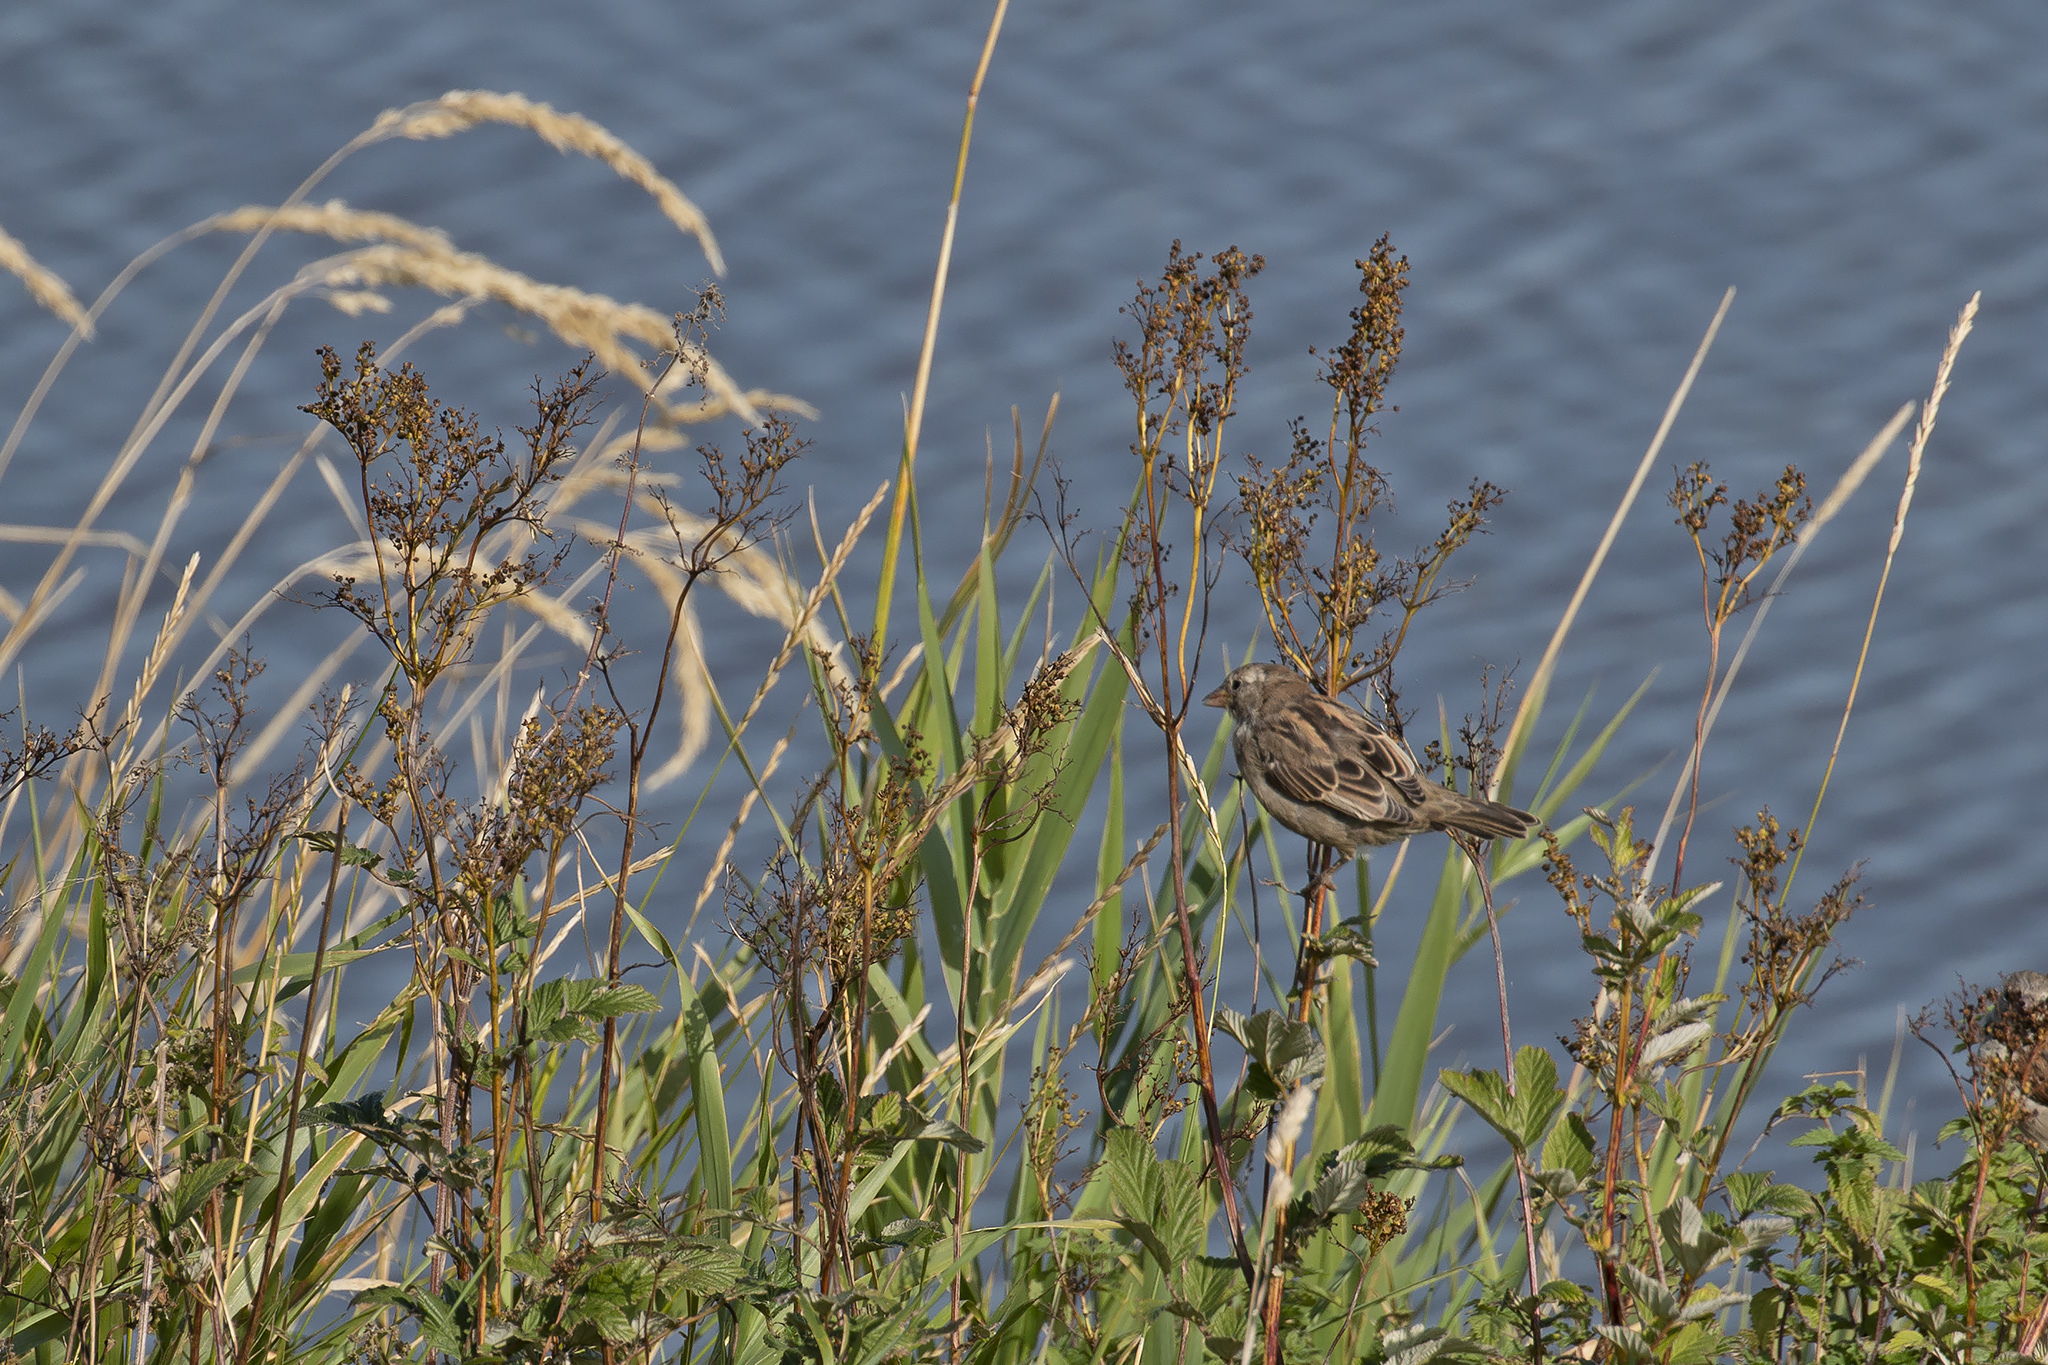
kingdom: Animalia
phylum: Chordata
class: Aves
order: Passeriformes
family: Passeridae
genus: Passer
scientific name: Passer domesticus
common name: House sparrow
